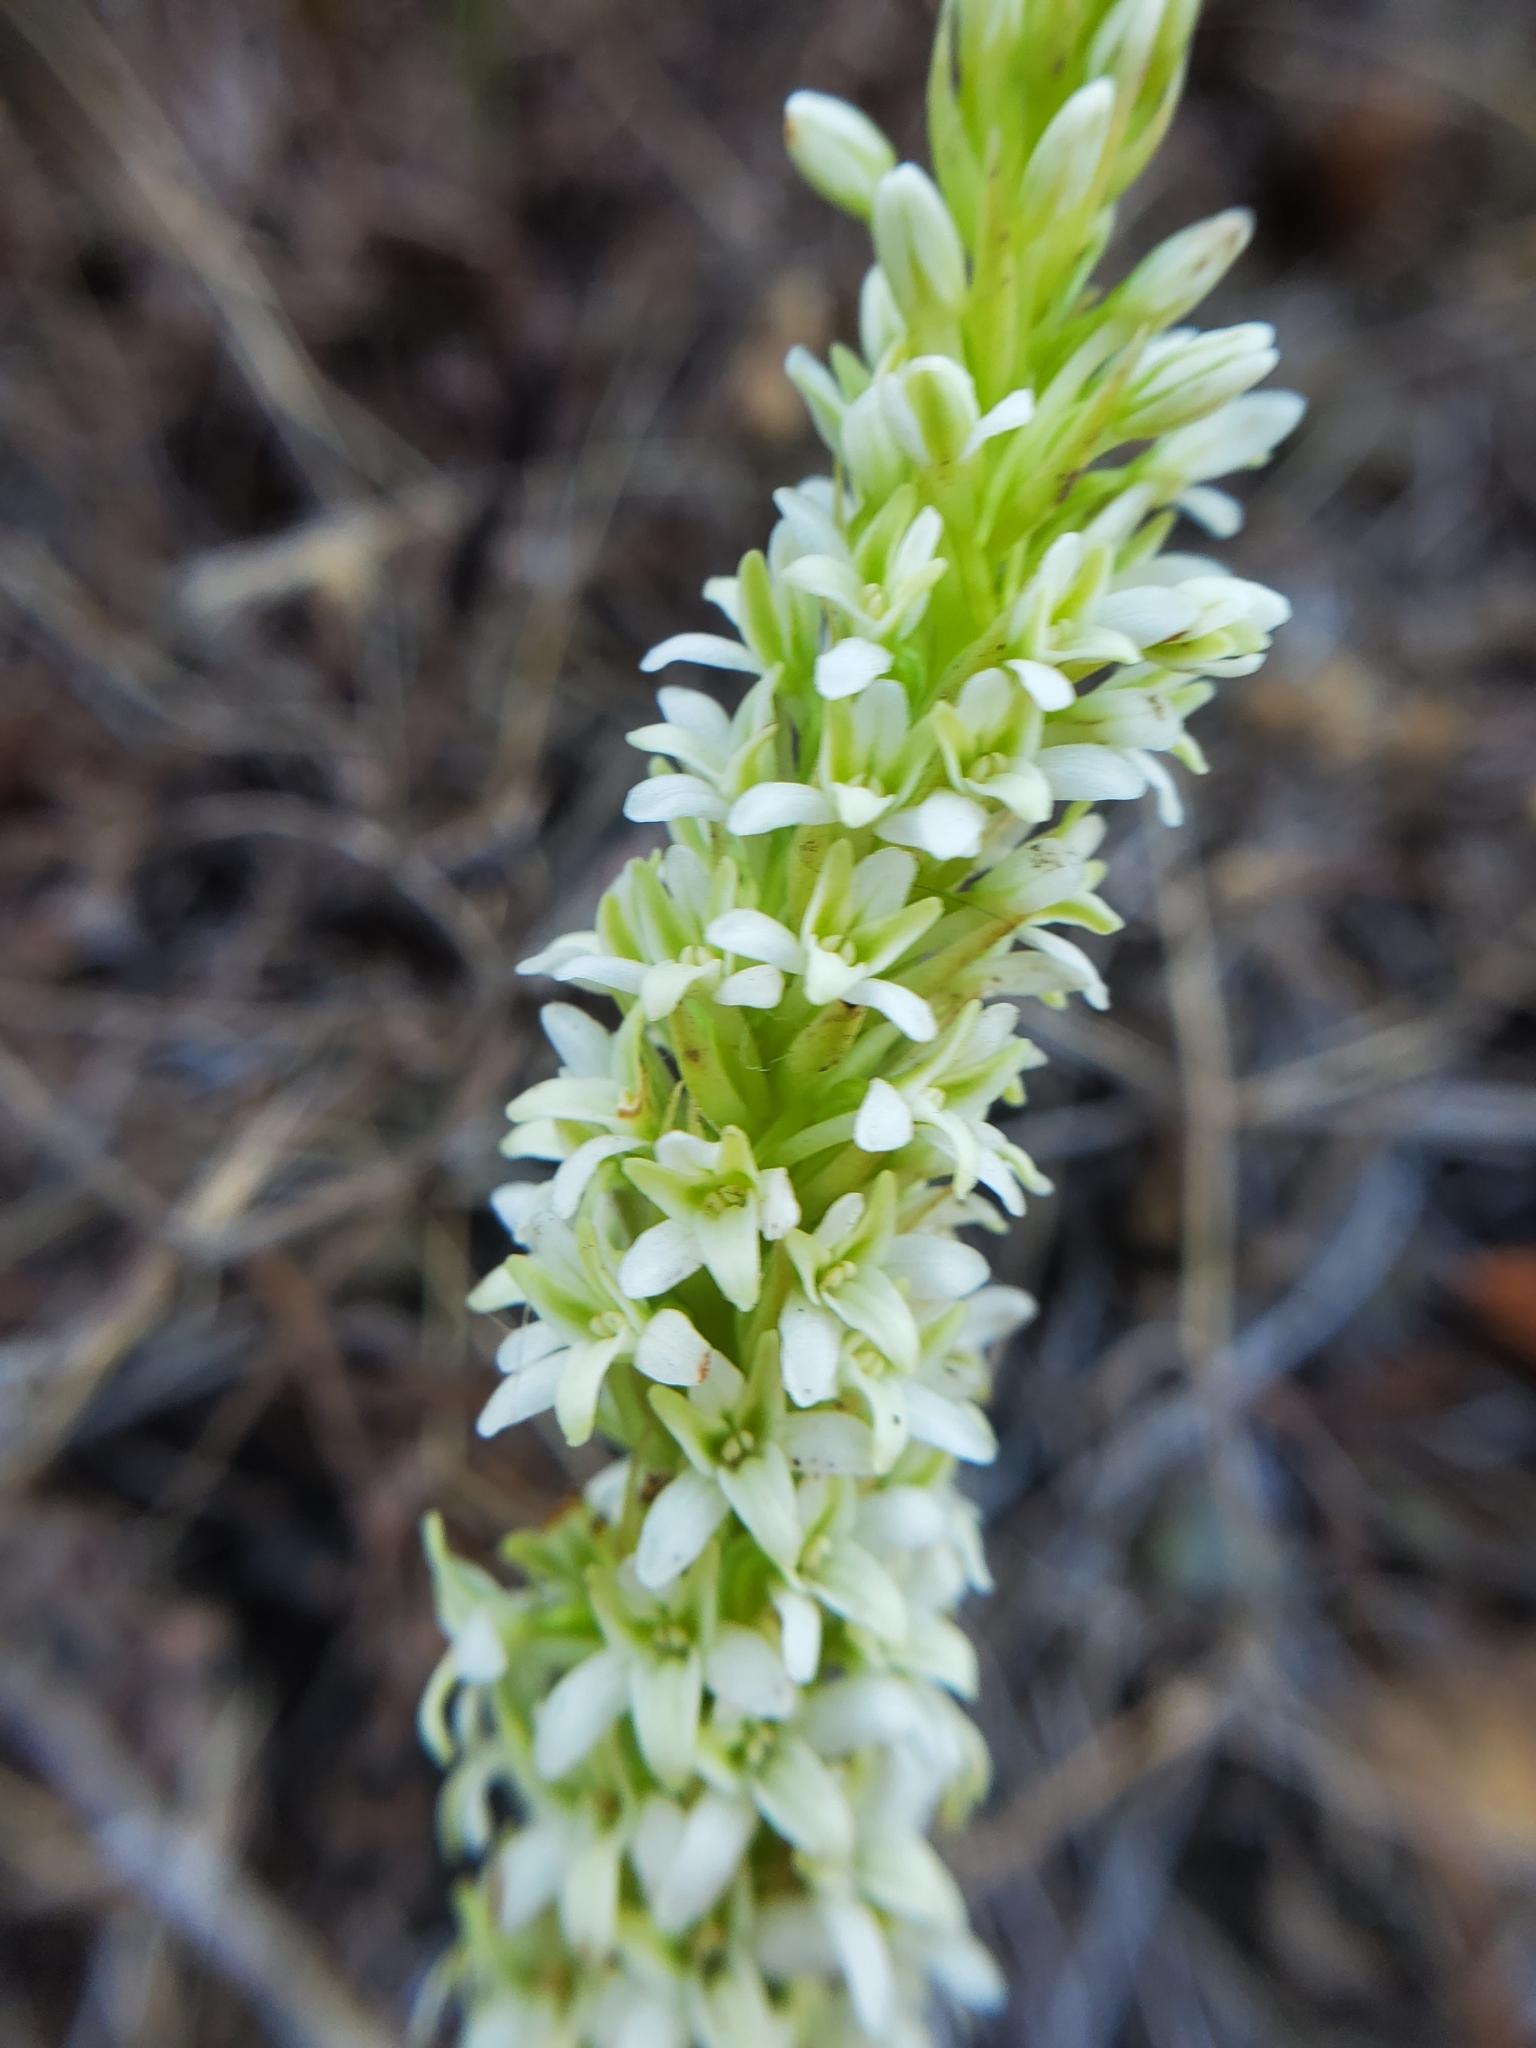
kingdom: Plantae
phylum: Tracheophyta
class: Liliopsida
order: Asparagales
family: Orchidaceae
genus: Platanthera
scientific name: Platanthera elegans
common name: Coast piperia
